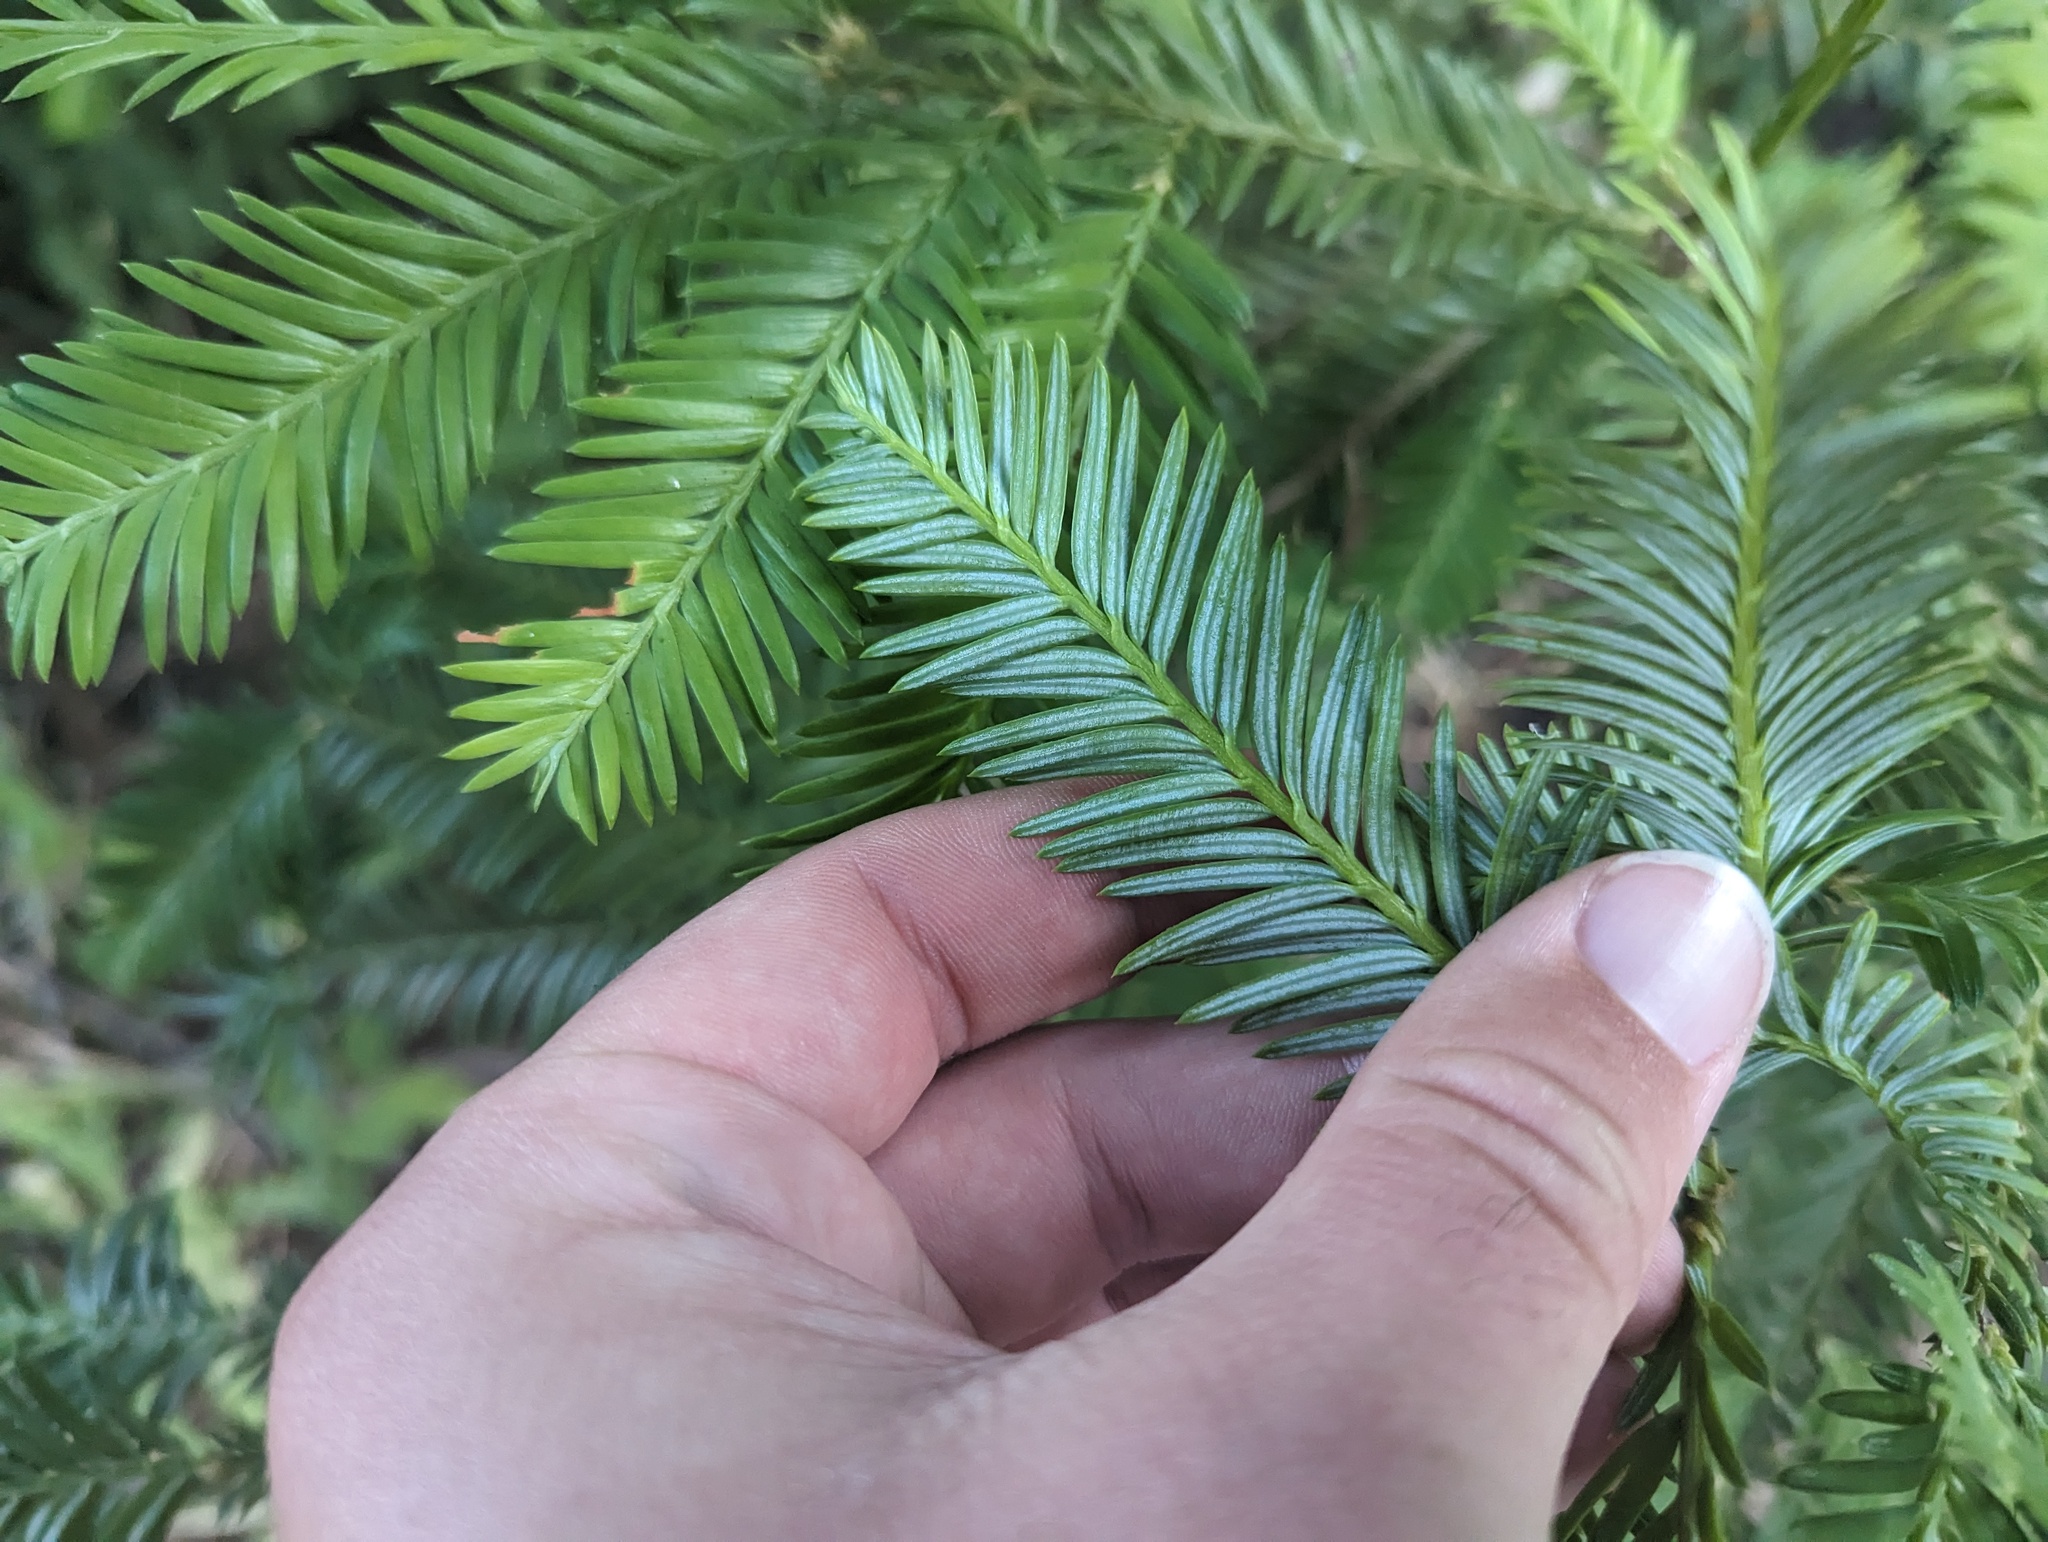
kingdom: Plantae
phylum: Tracheophyta
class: Pinopsida
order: Pinales
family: Cupressaceae
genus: Sequoia
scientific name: Sequoia sempervirens
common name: Coast redwood
